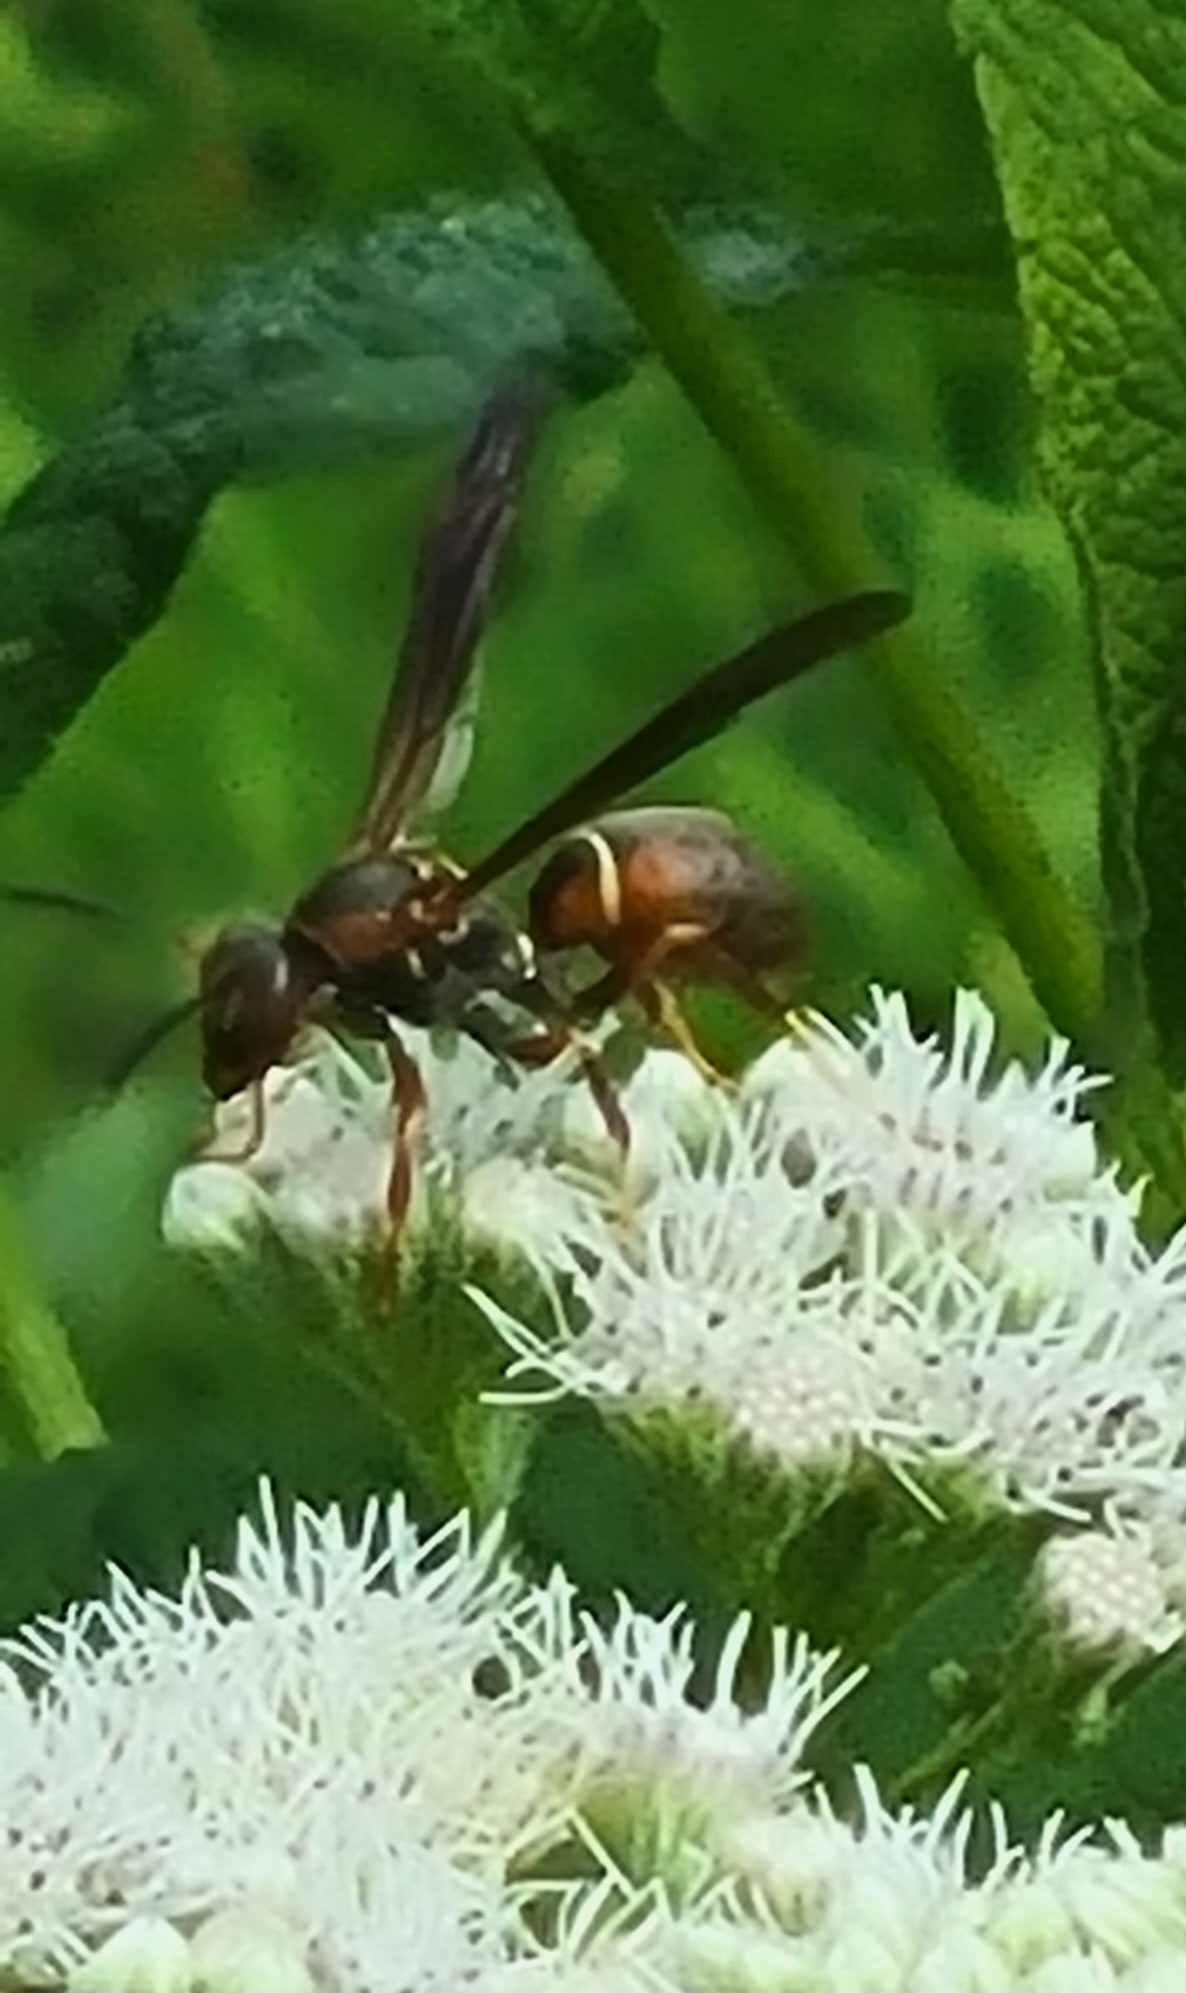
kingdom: Animalia
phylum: Arthropoda
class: Insecta
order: Hymenoptera
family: Eumenidae
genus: Polistes
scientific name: Polistes fuscatus
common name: Dark paper wasp
